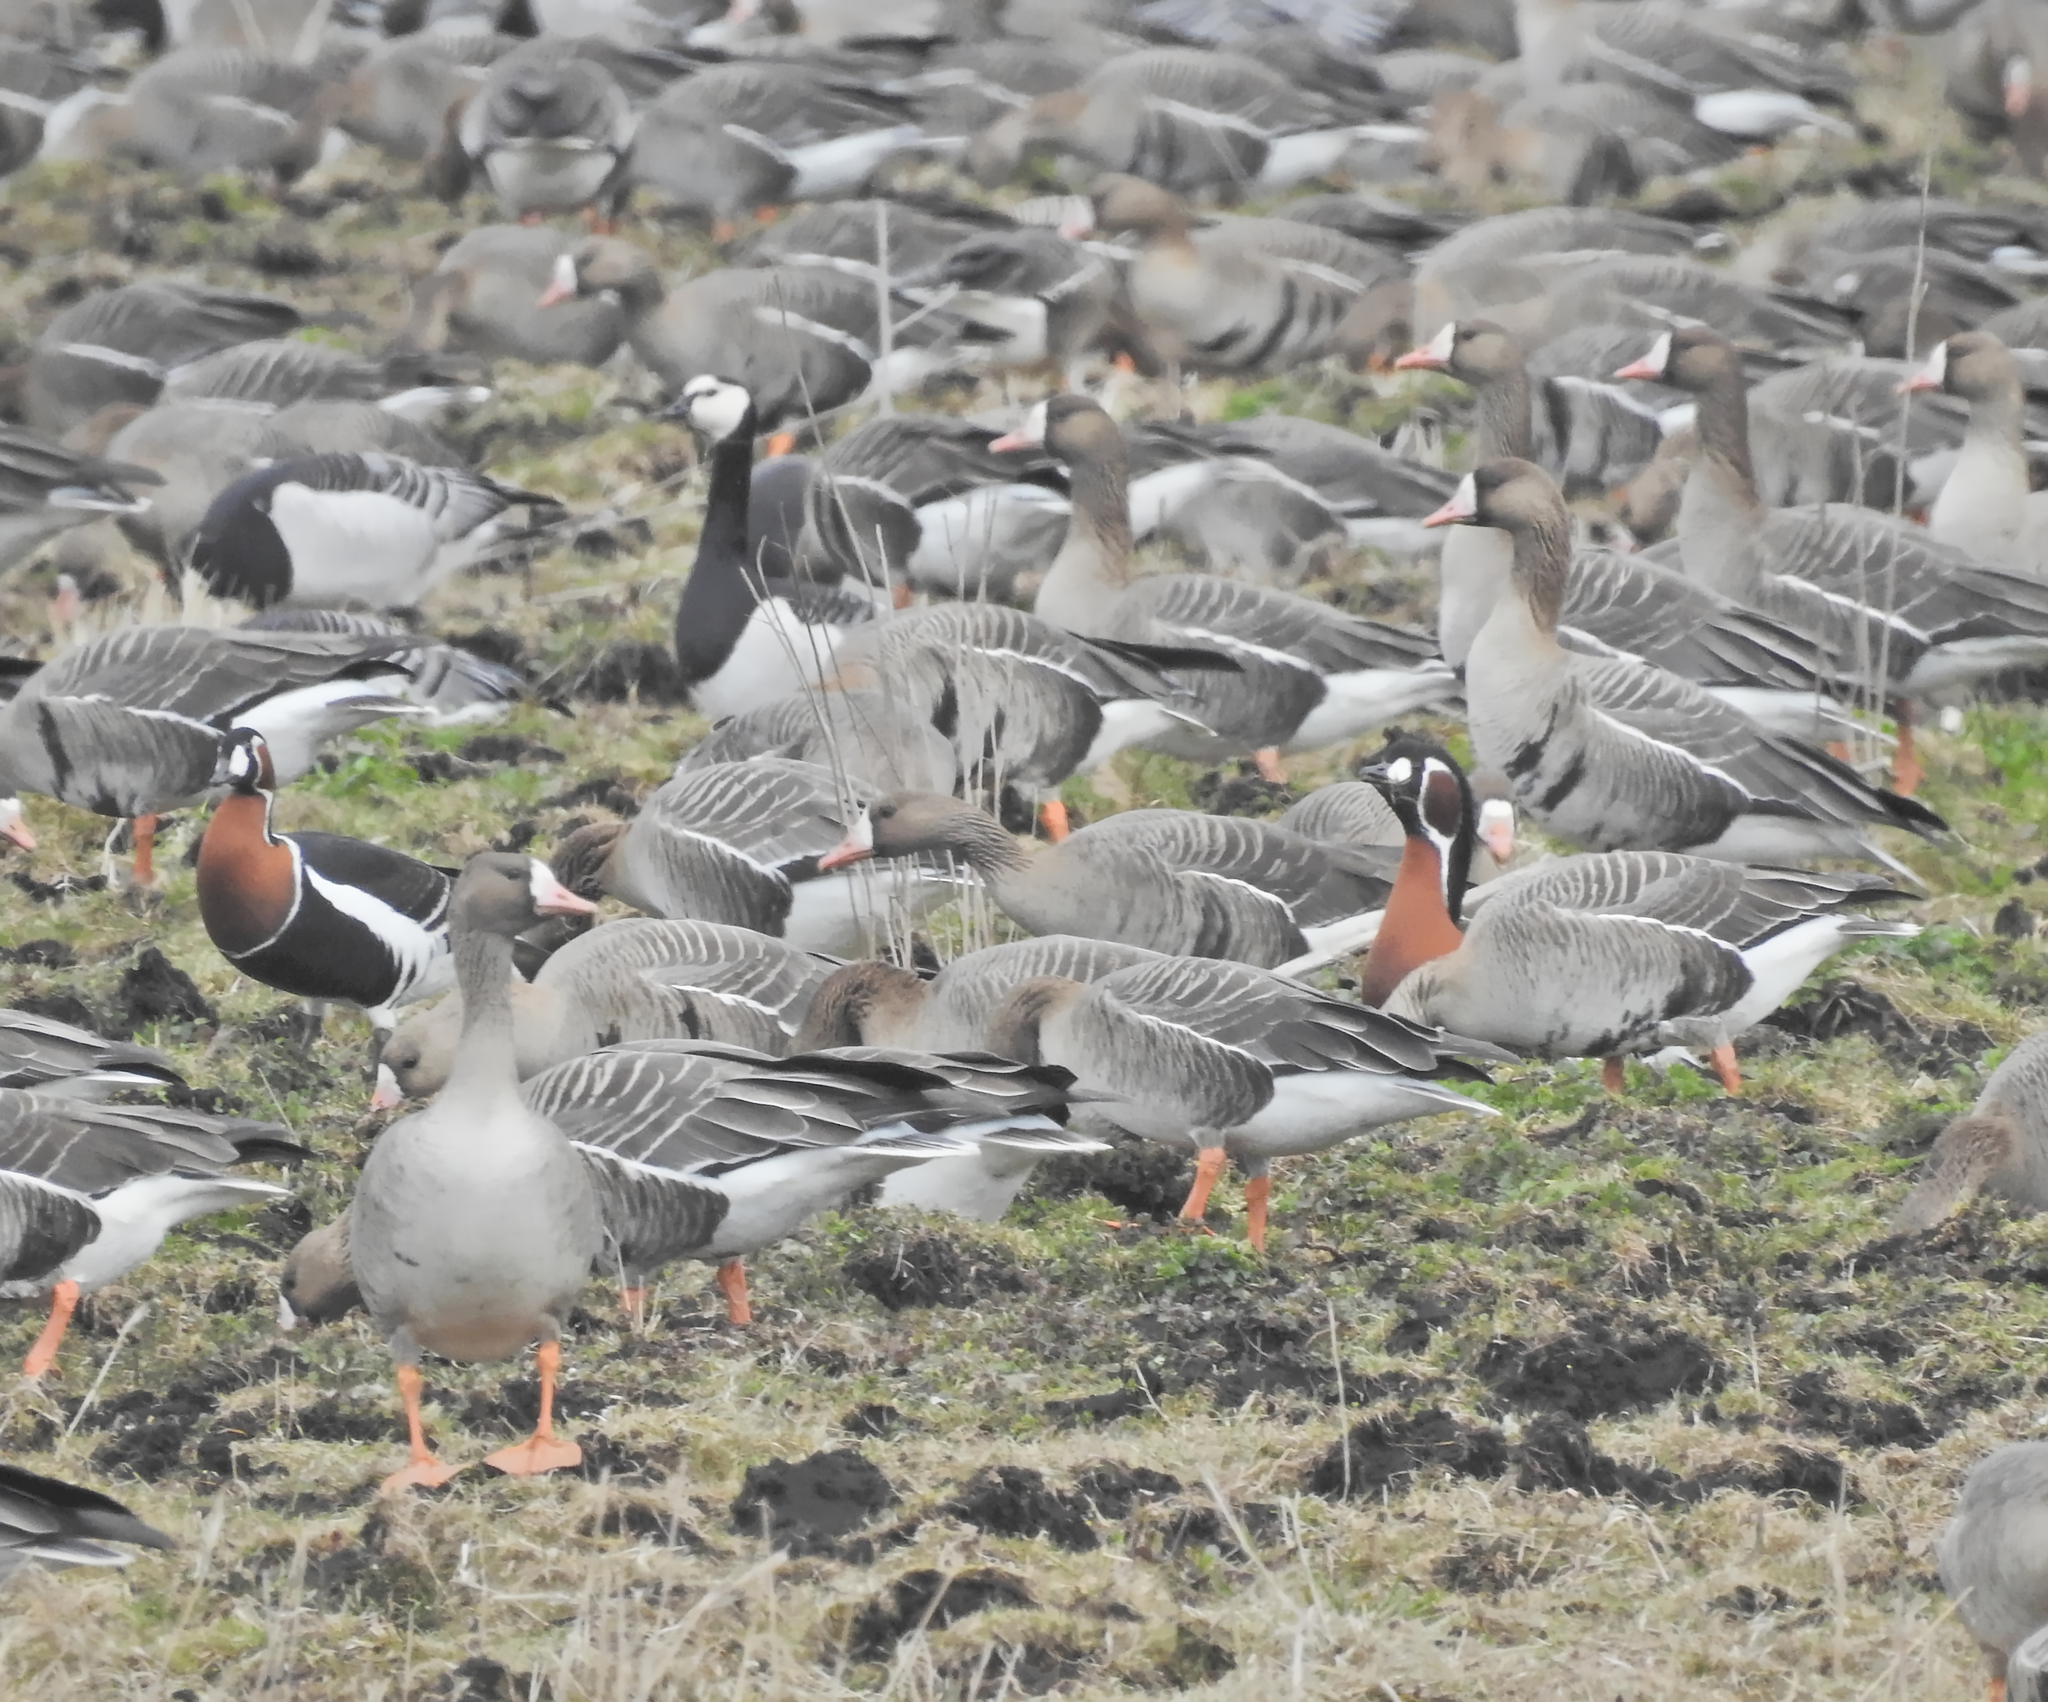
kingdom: Animalia
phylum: Chordata
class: Aves
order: Anseriformes
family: Anatidae
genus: Branta
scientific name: Branta leucopsis
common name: Barnacle goose
